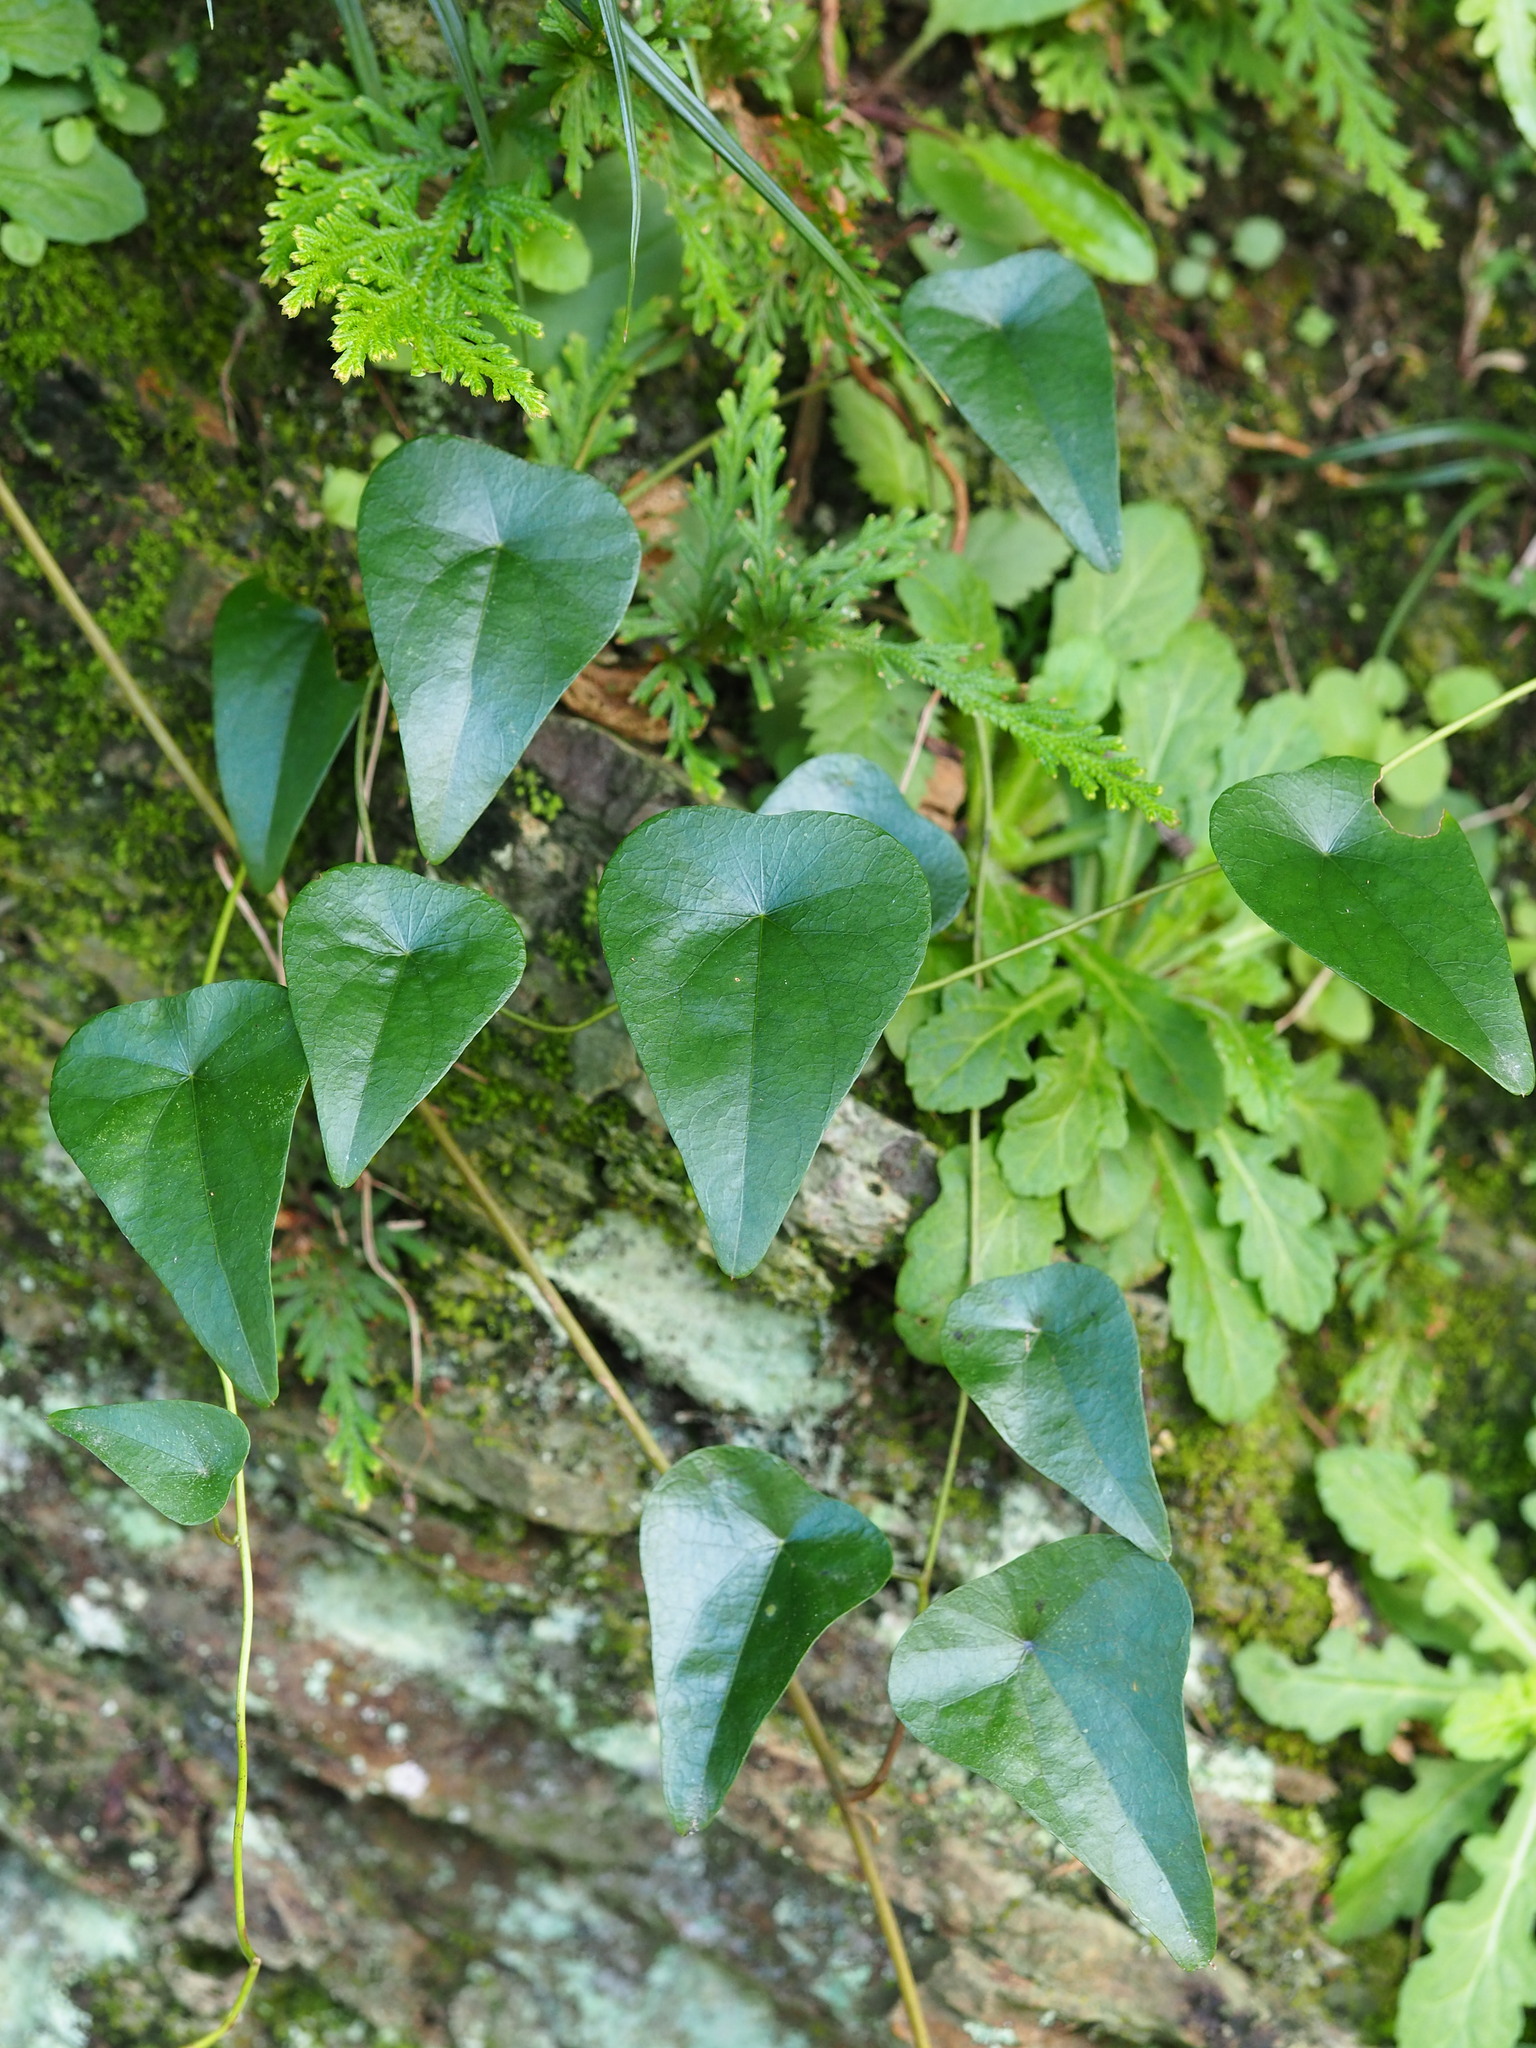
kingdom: Plantae
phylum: Tracheophyta
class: Magnoliopsida
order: Ranunculales
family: Menispermaceae
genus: Stephania
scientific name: Stephania longa
